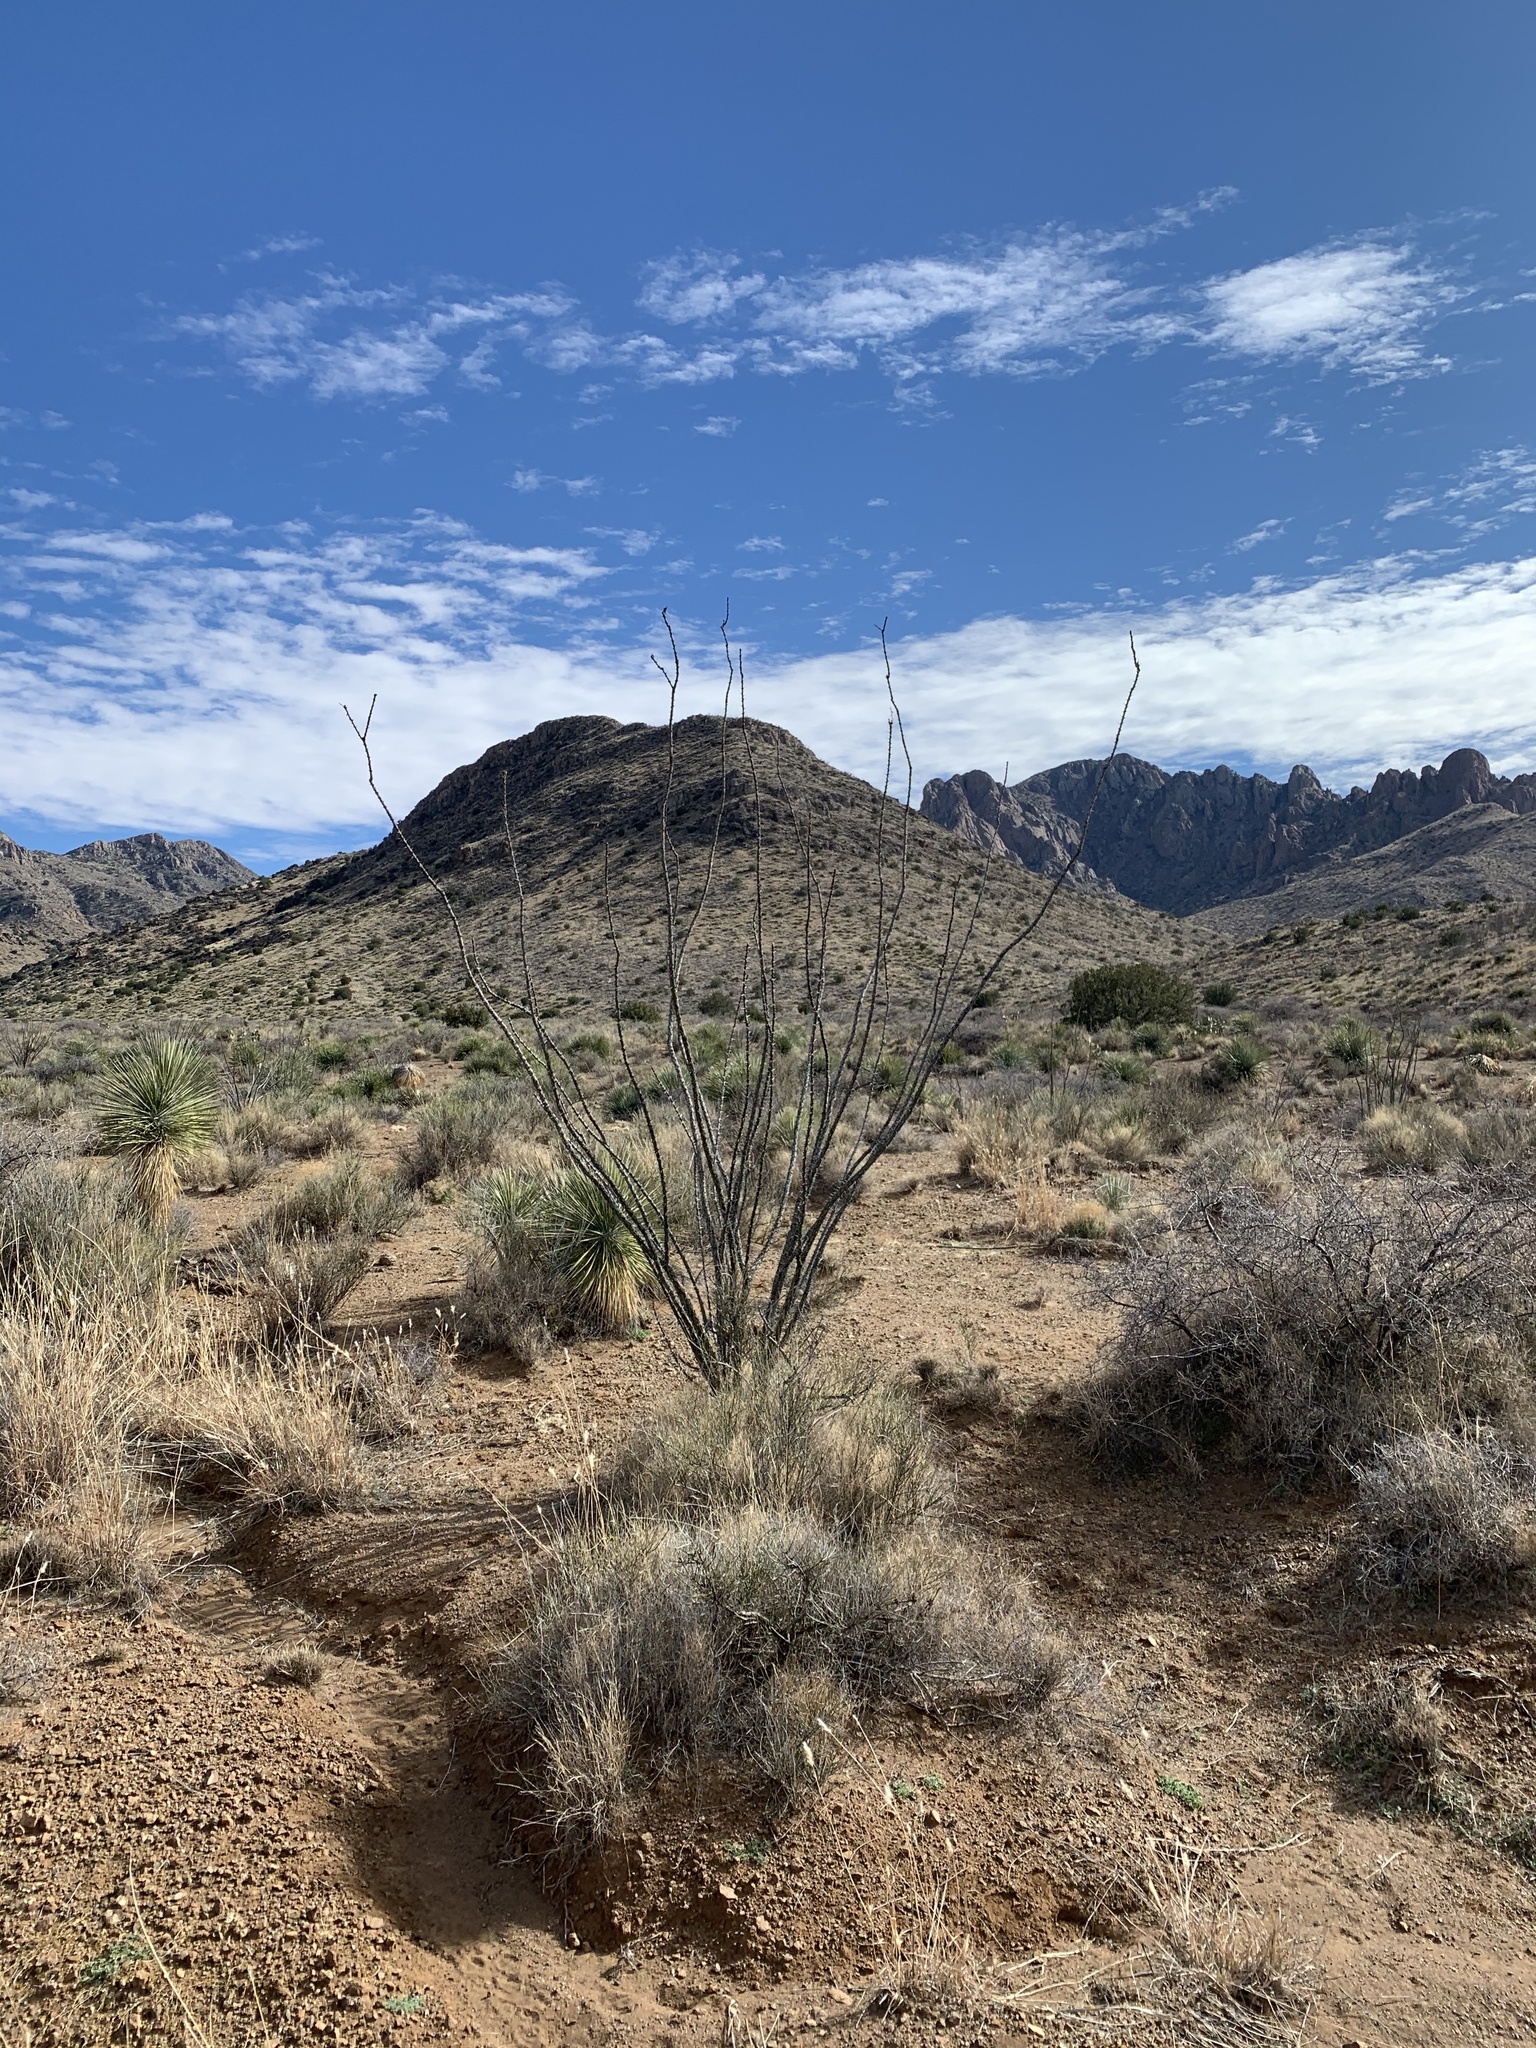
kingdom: Plantae
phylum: Tracheophyta
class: Magnoliopsida
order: Ericales
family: Fouquieriaceae
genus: Fouquieria
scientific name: Fouquieria splendens
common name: Vine-cactus
